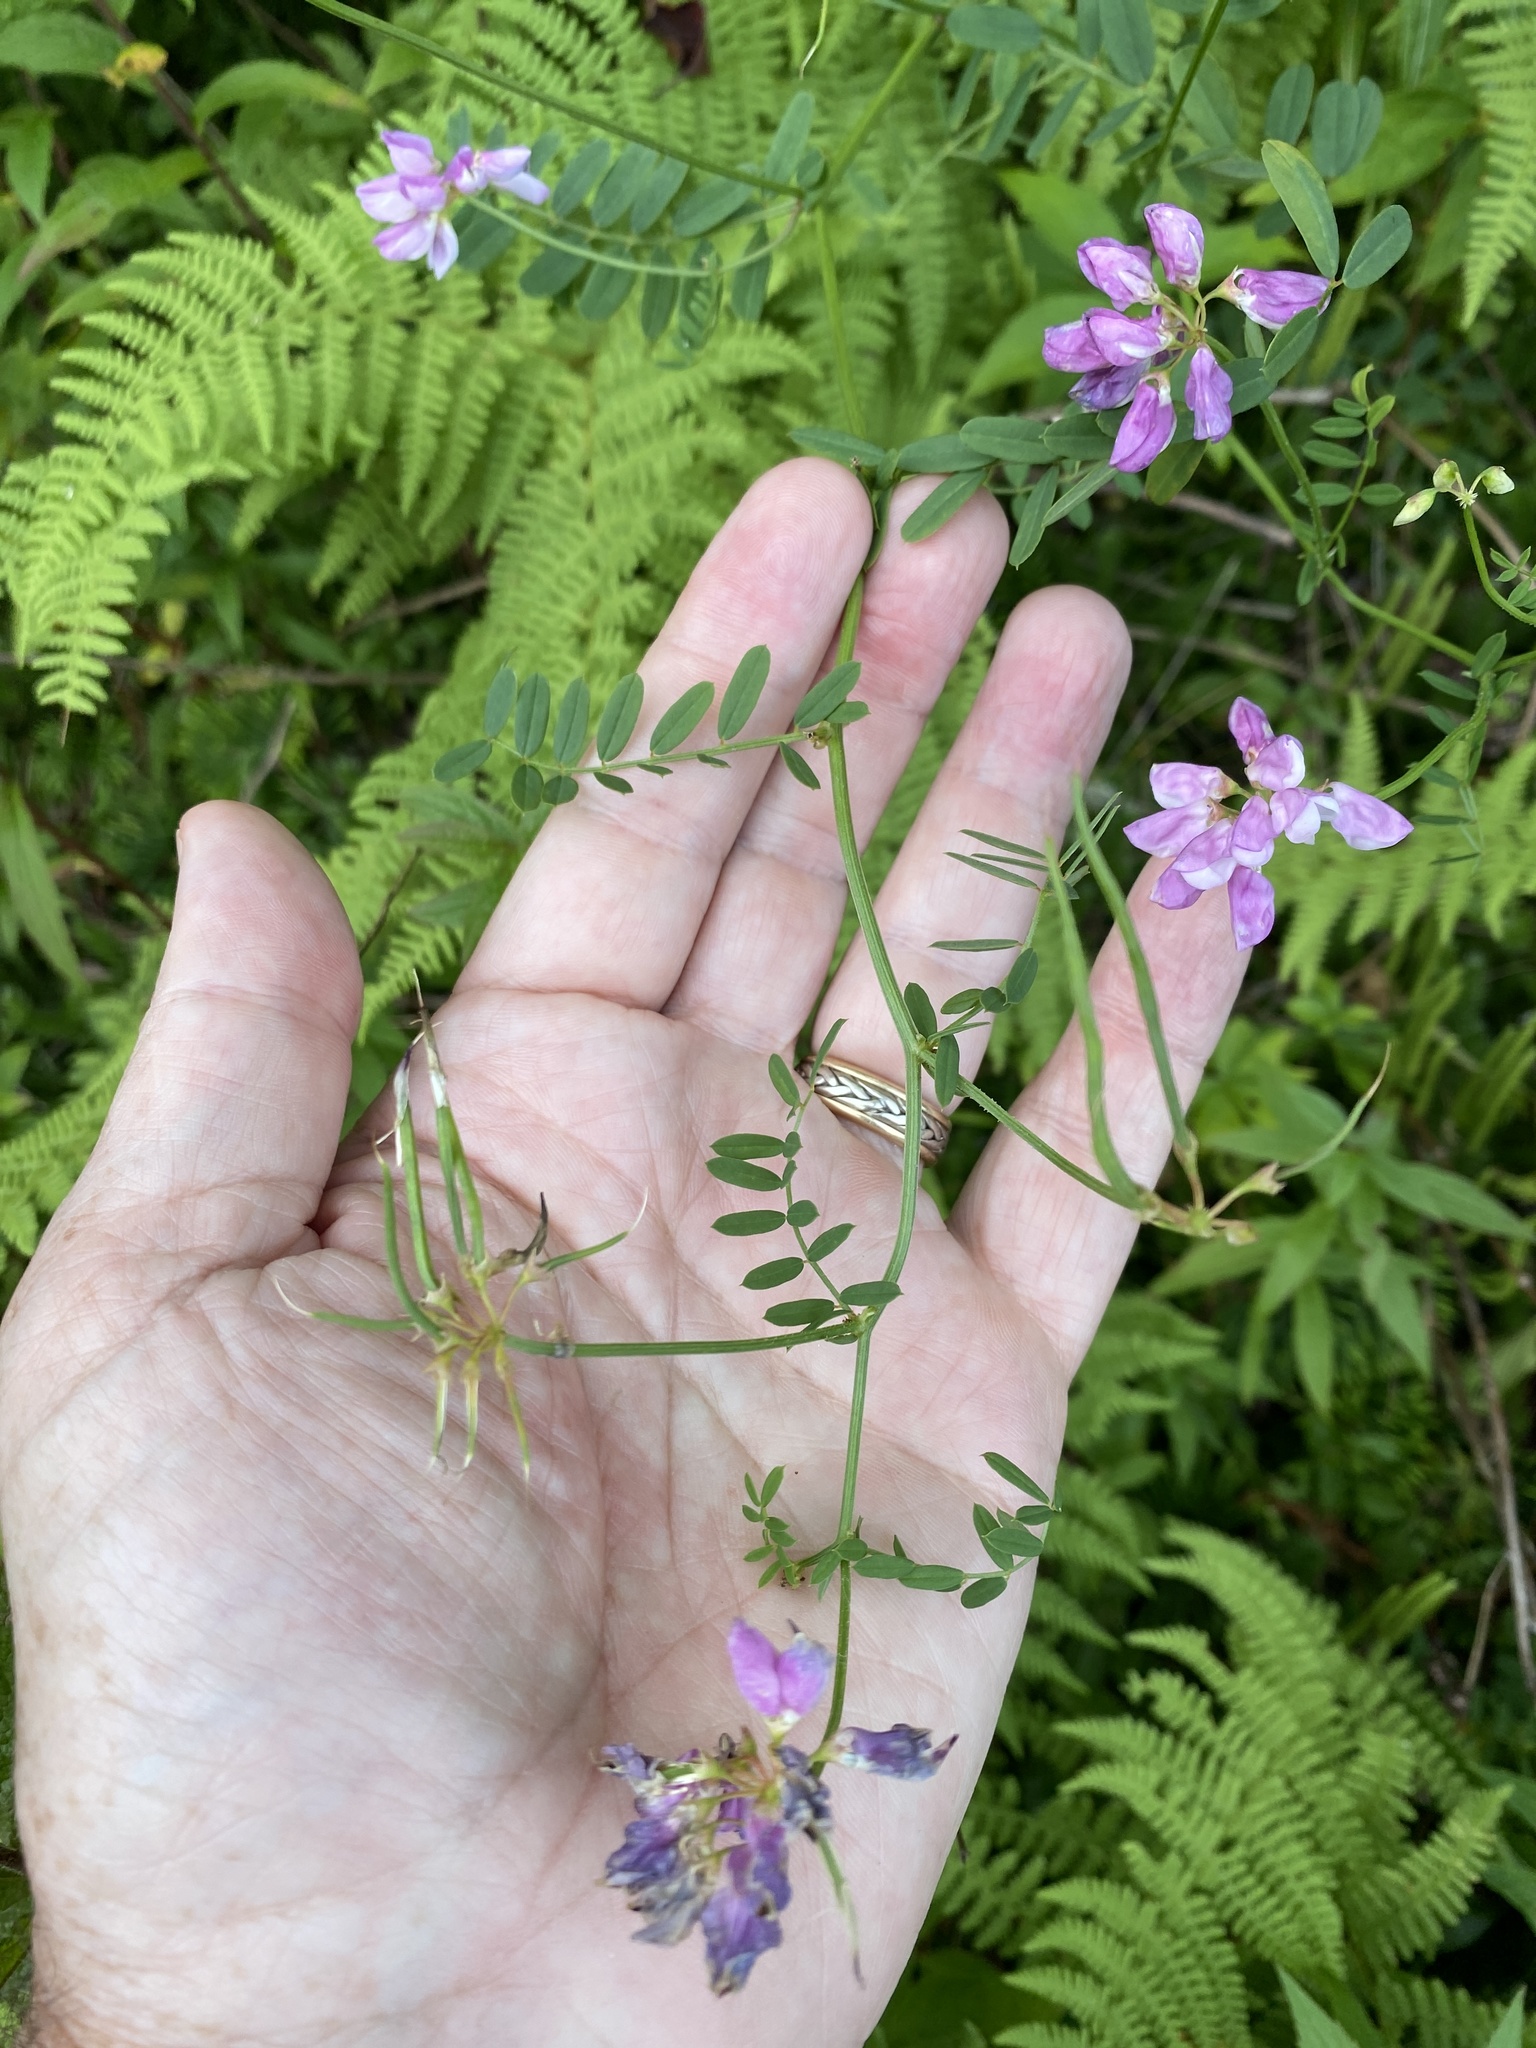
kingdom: Plantae
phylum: Tracheophyta
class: Magnoliopsida
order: Fabales
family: Fabaceae
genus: Coronilla
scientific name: Coronilla varia
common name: Crownvetch
